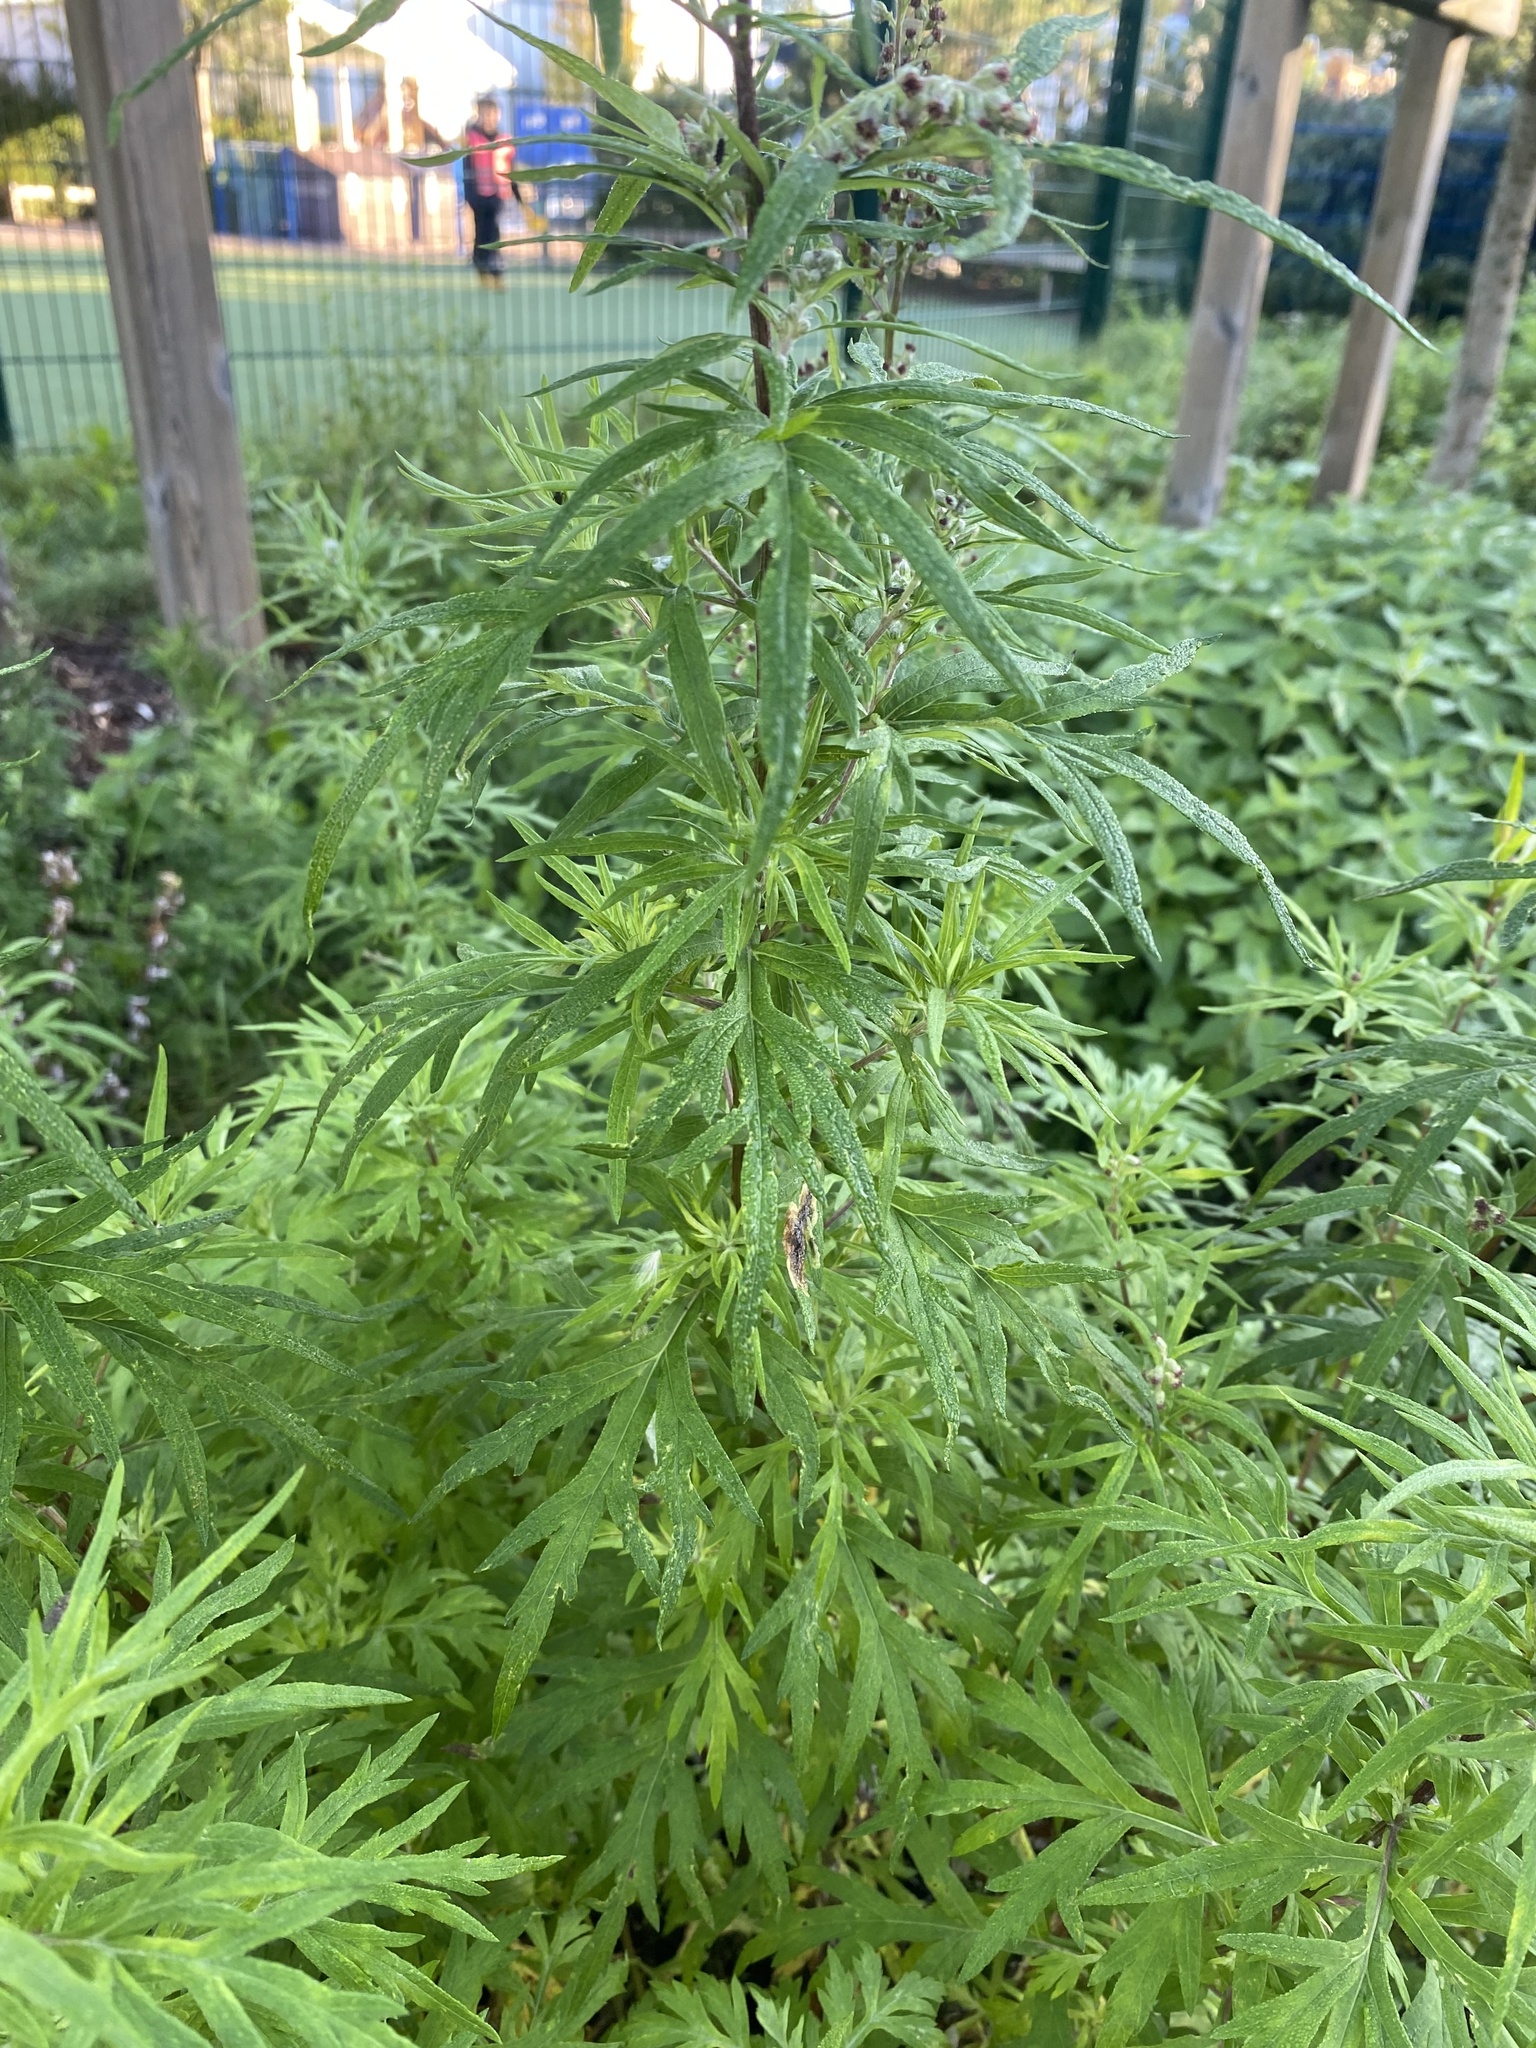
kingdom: Plantae
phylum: Tracheophyta
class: Magnoliopsida
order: Asterales
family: Asteraceae
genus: Artemisia
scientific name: Artemisia vulgaris
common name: Mugwort
